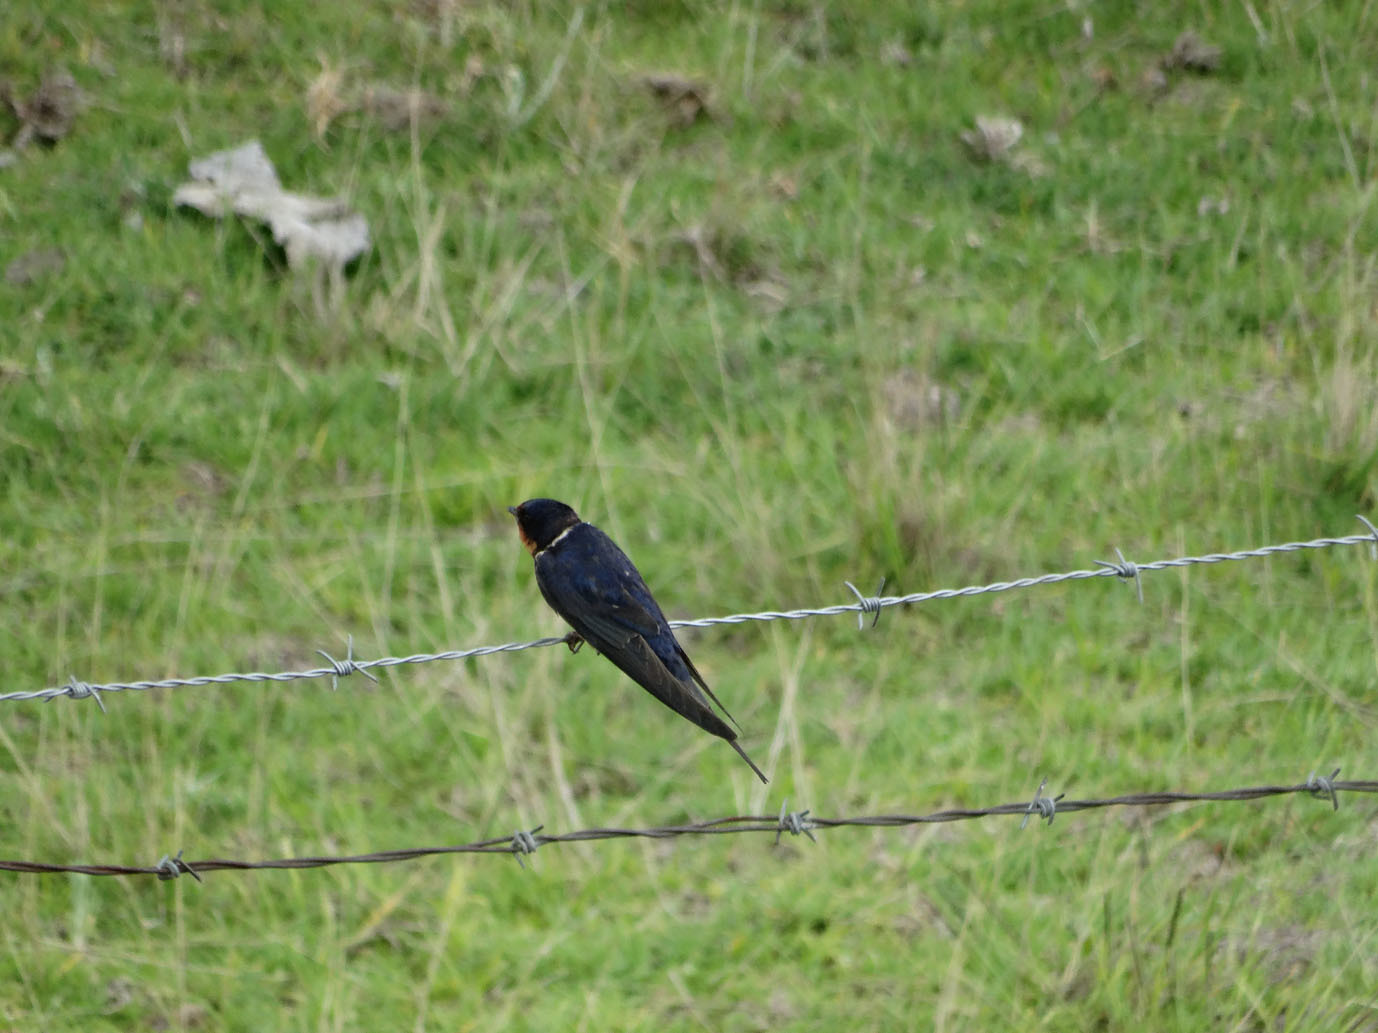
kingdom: Animalia
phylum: Chordata
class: Aves
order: Passeriformes
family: Hirundinidae
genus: Hirundo
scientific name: Hirundo rustica
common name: Barn swallow
